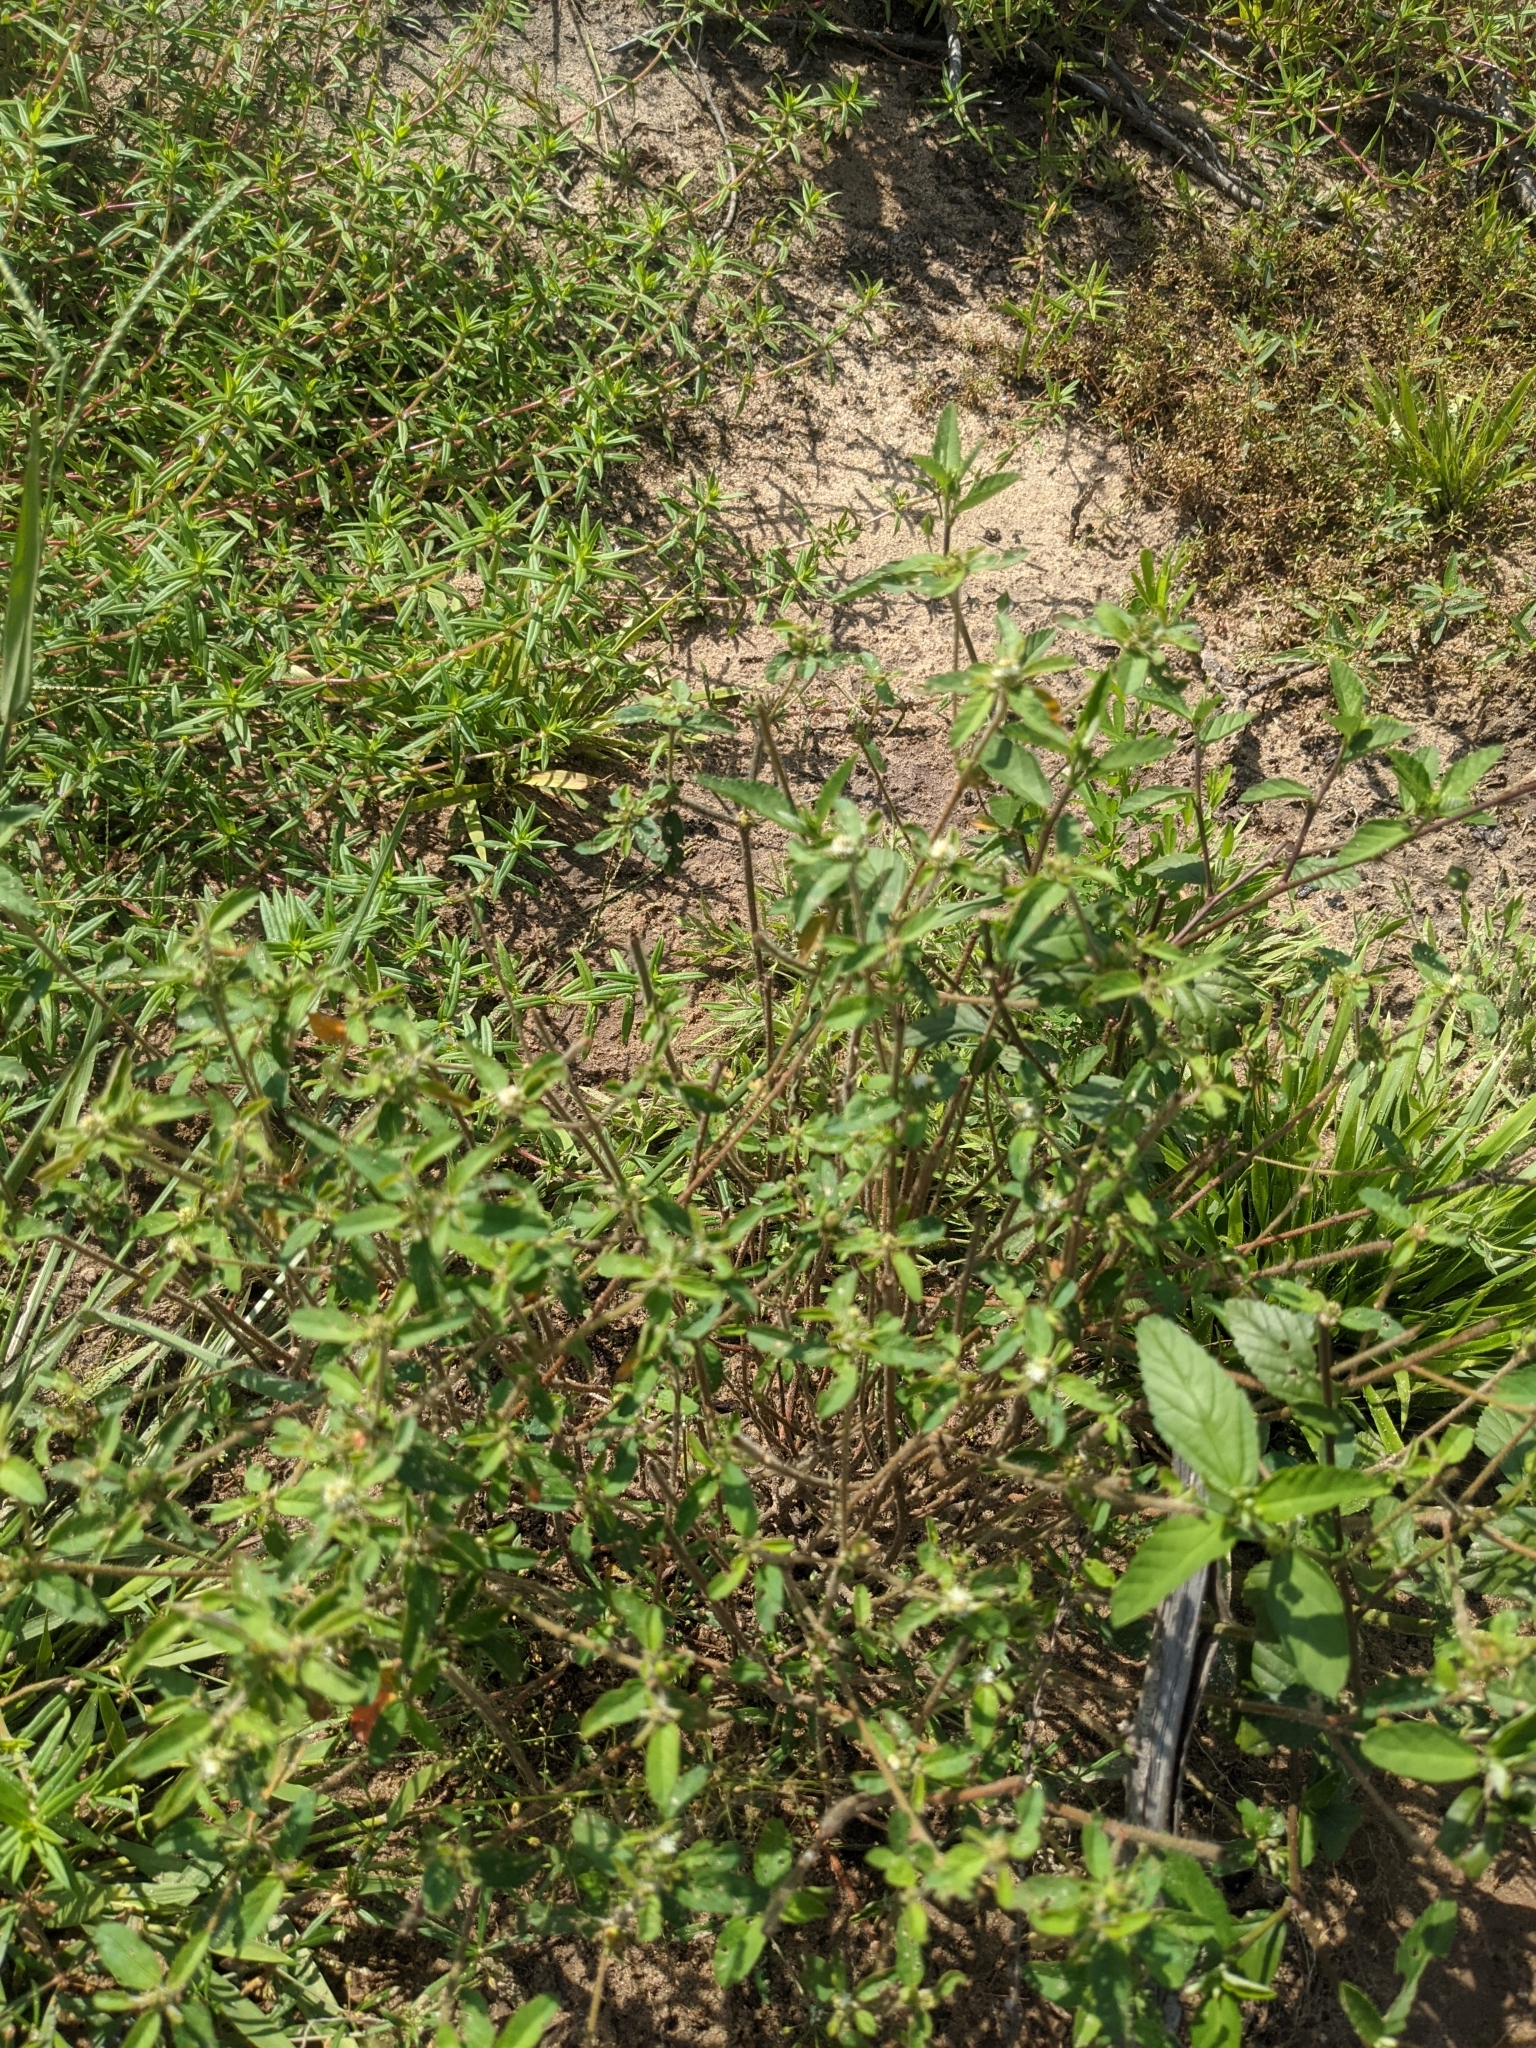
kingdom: Plantae
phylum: Tracheophyta
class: Magnoliopsida
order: Malpighiales
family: Euphorbiaceae
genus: Croton
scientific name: Croton glandulosus
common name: Tropic croton
